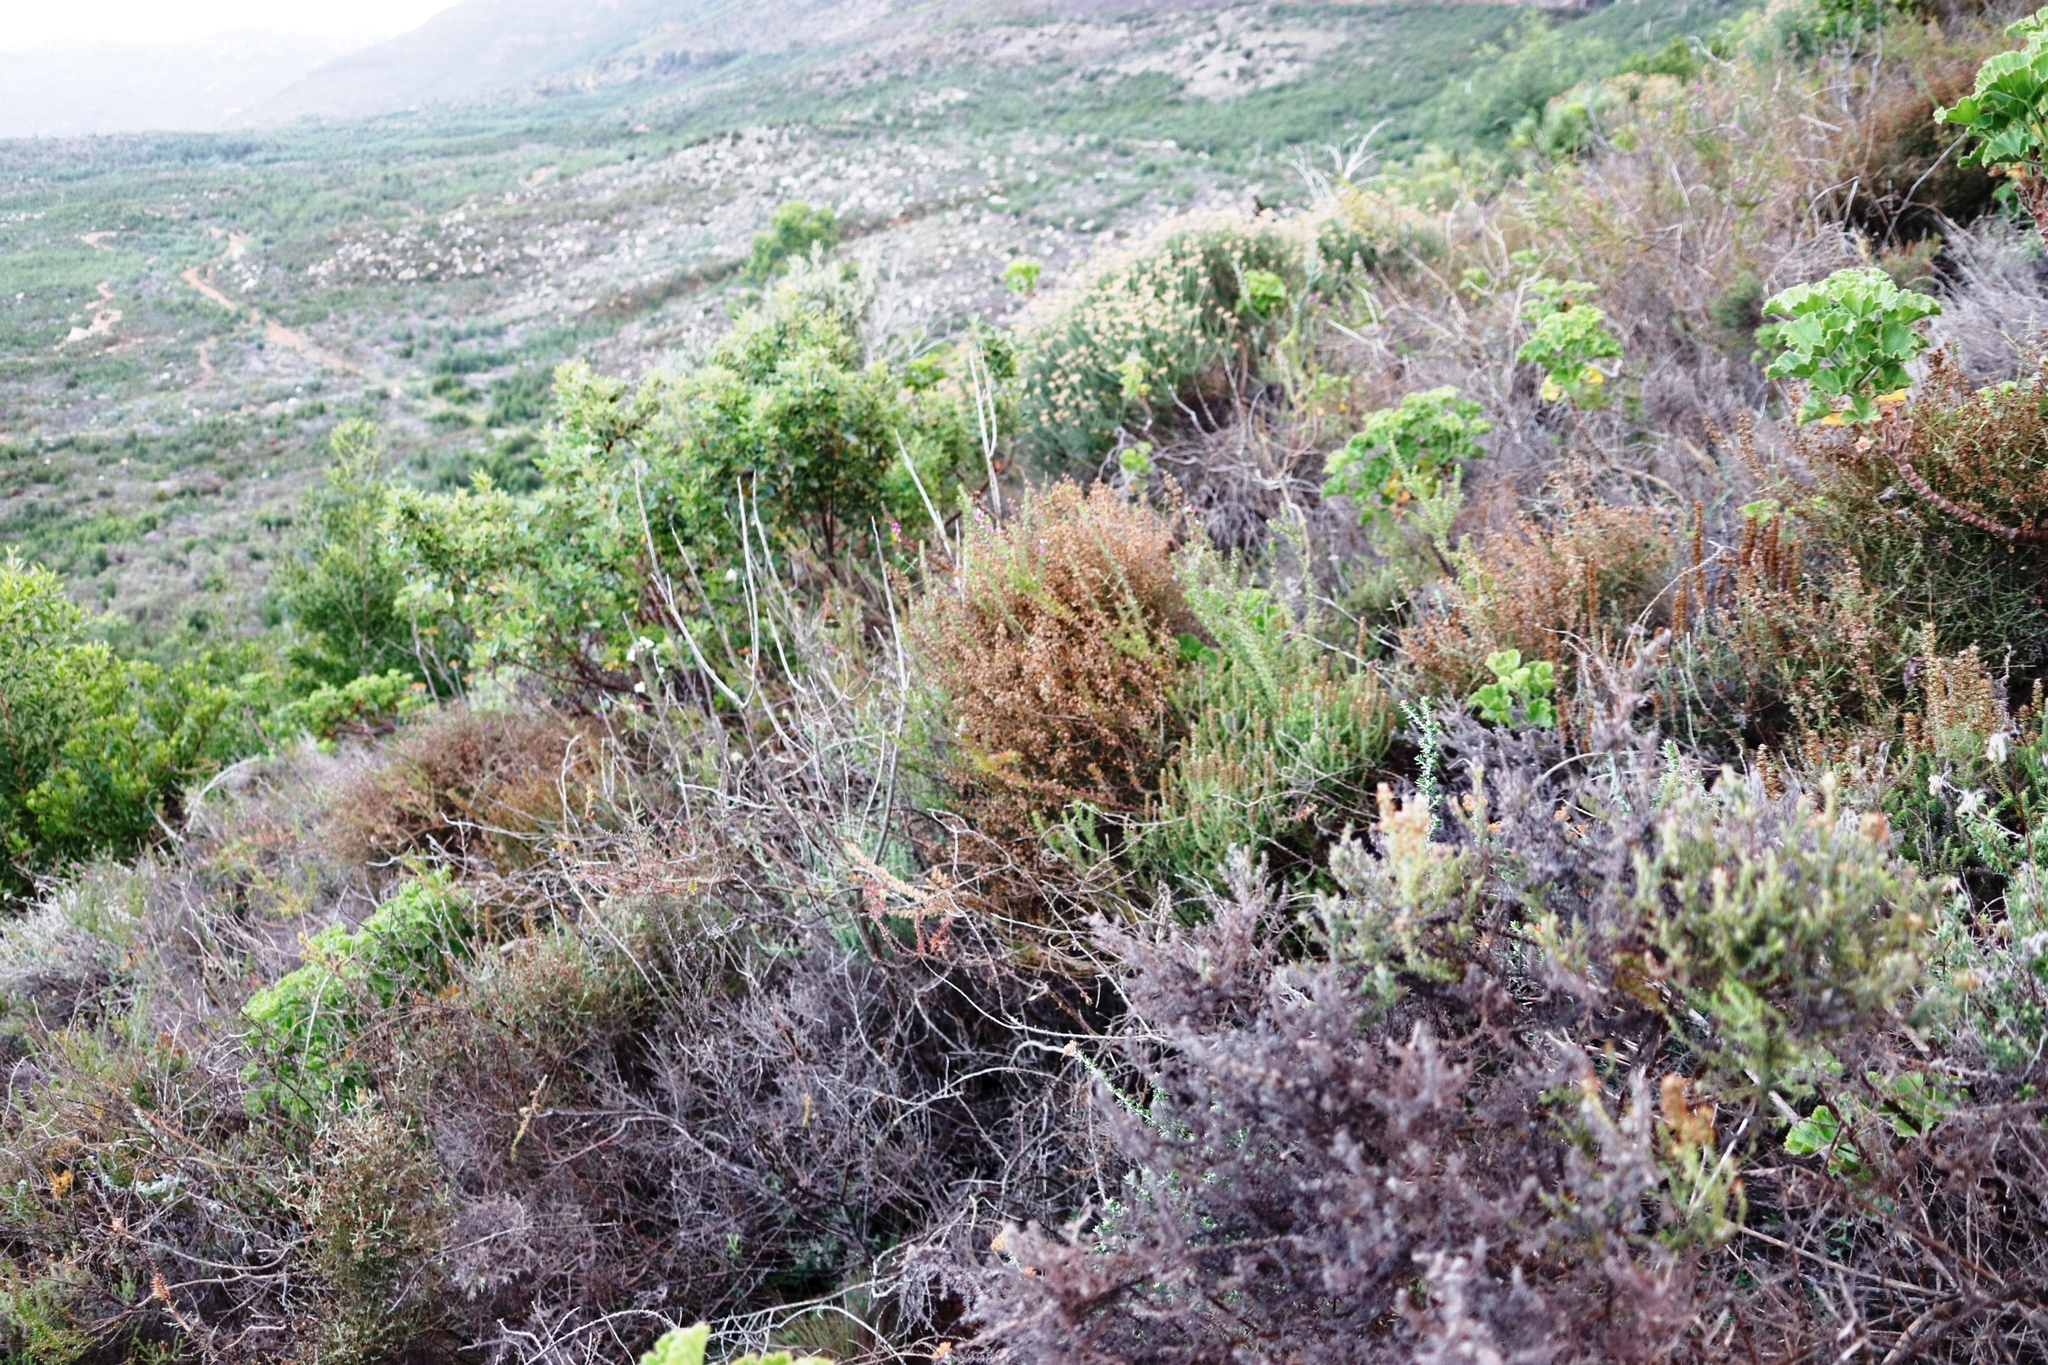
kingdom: Plantae
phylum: Tracheophyta
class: Magnoliopsida
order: Asterales
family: Asteraceae
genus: Myrovernix
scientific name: Myrovernix scaber
